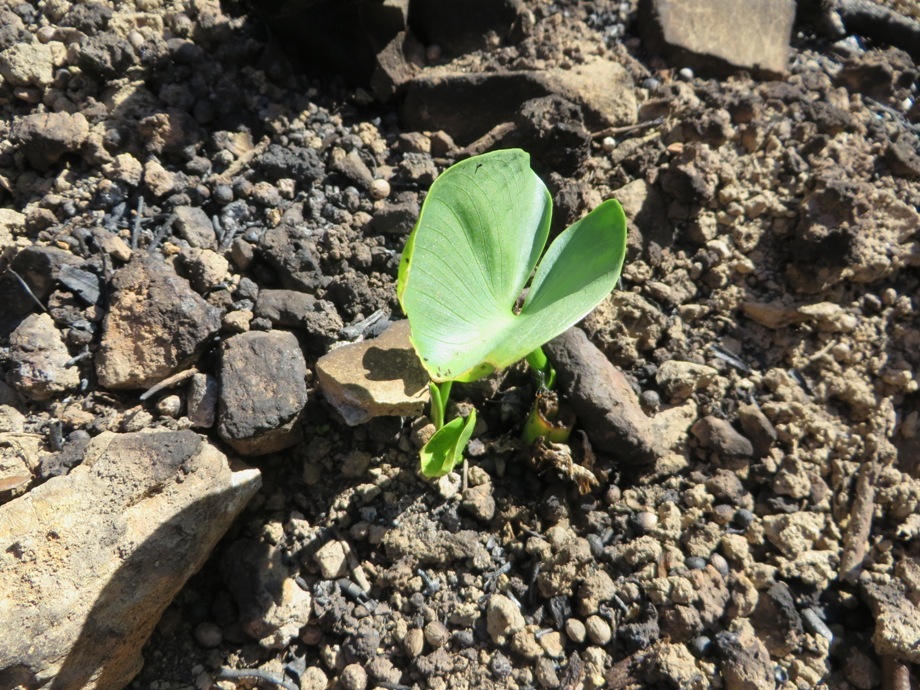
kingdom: Plantae
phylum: Tracheophyta
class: Liliopsida
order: Alismatales
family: Araceae
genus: Zantedeschia
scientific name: Zantedeschia aethiopica
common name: Altar-lily
